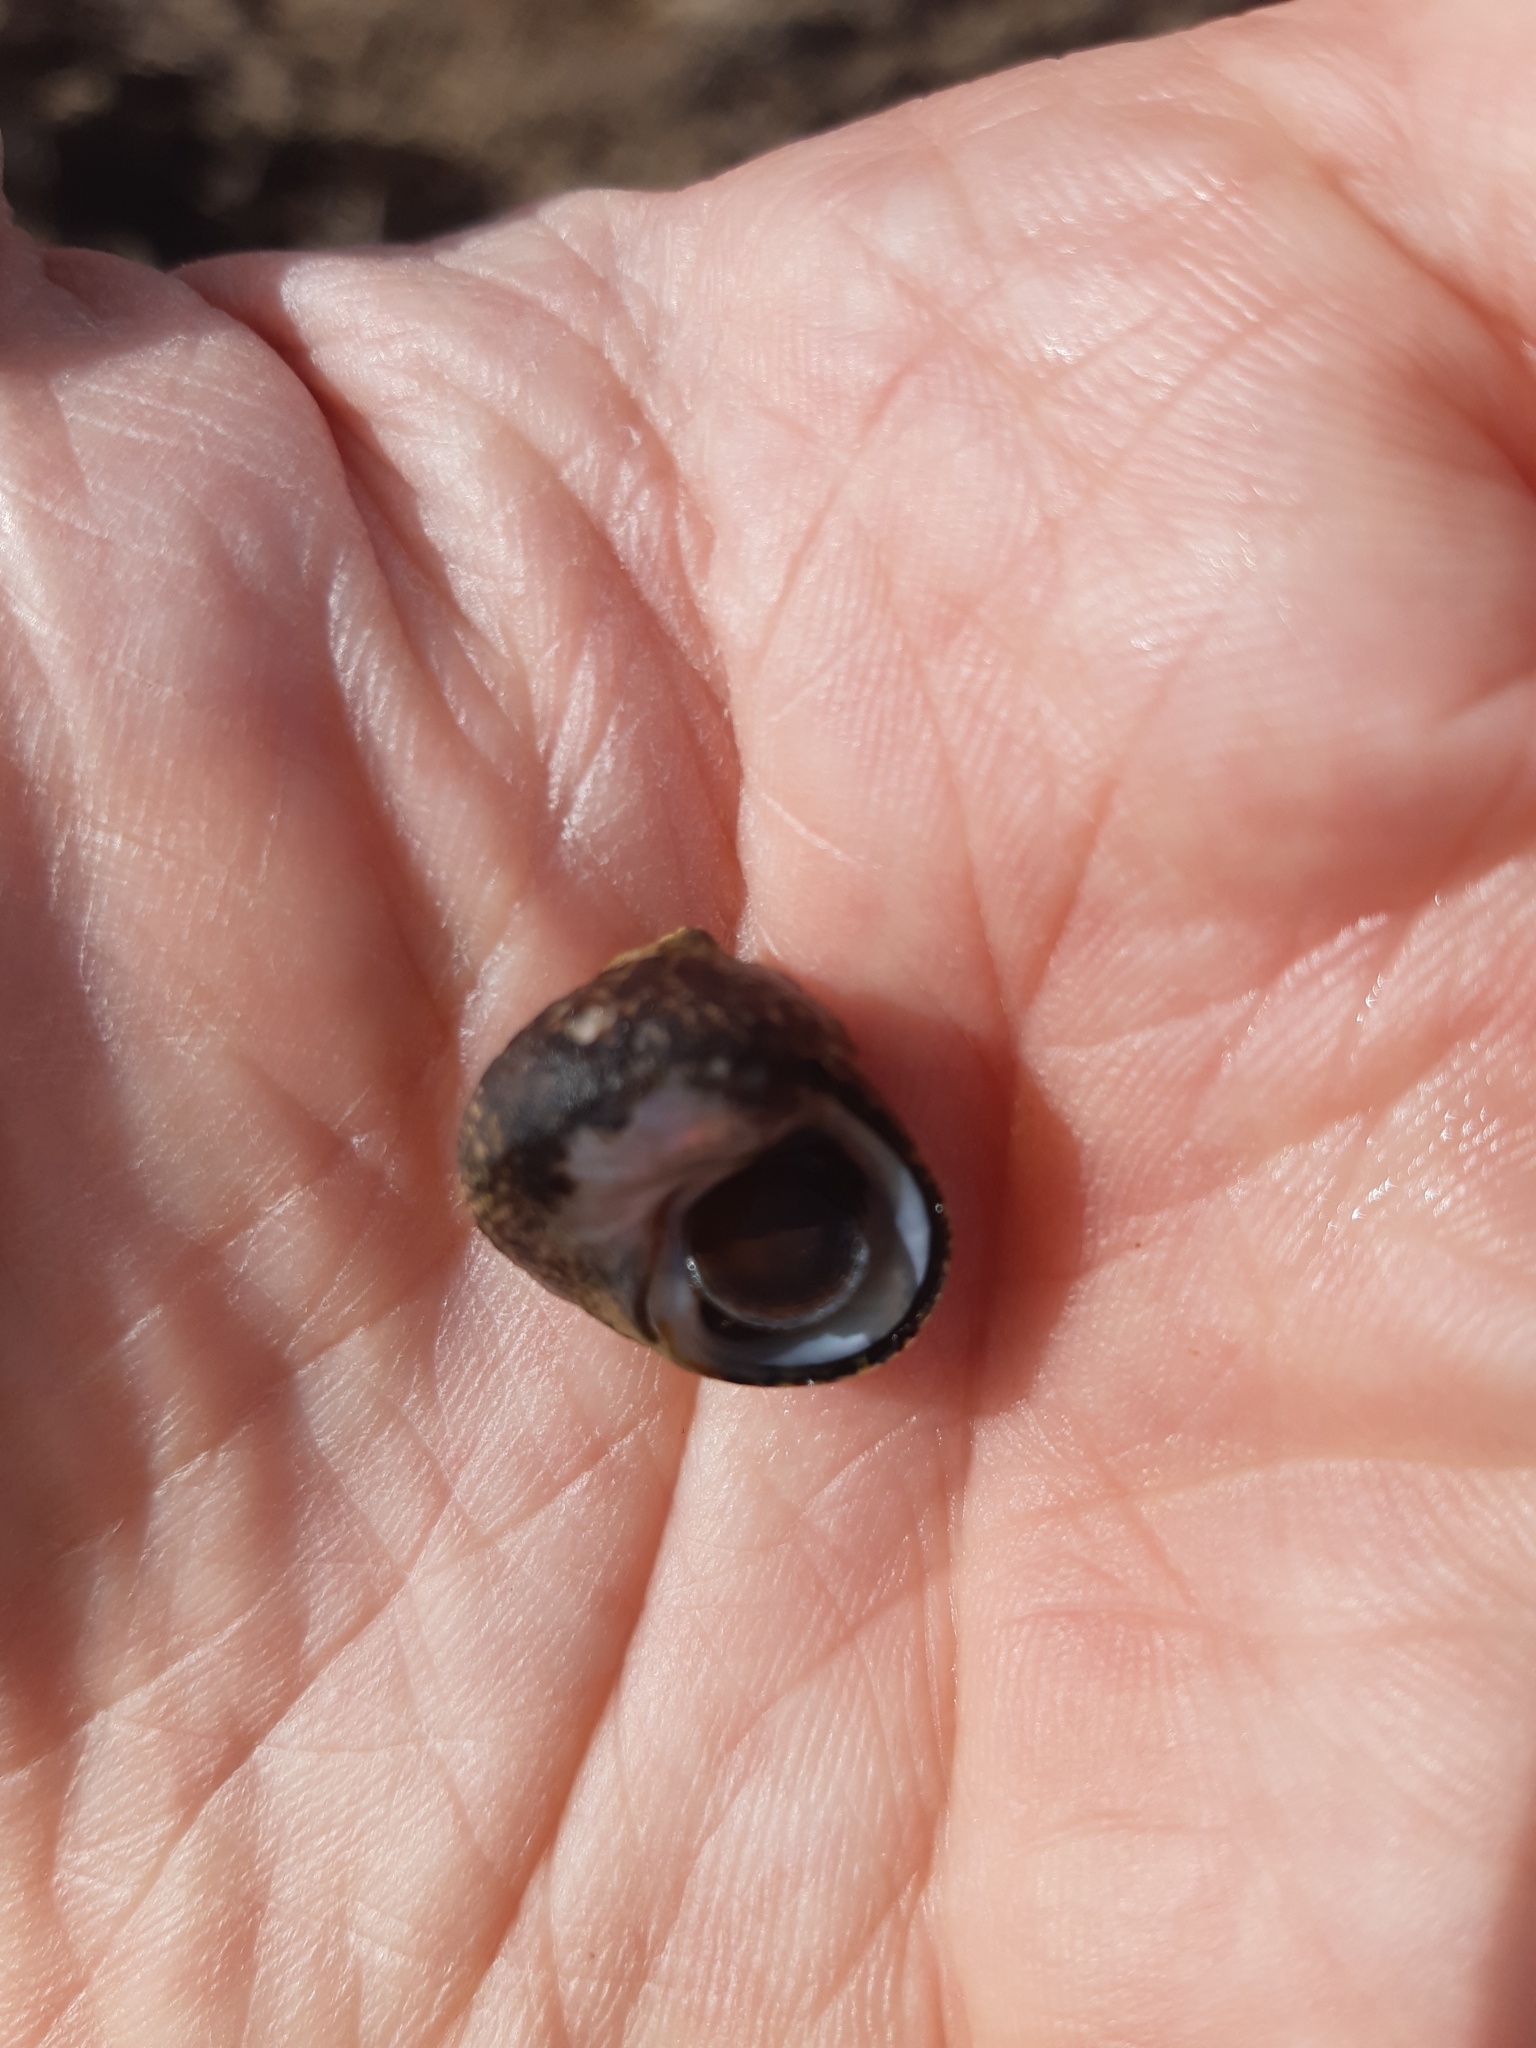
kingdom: Animalia
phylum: Mollusca
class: Gastropoda
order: Trochida
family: Trochidae
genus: Phorcus
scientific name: Phorcus lineatus
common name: Toothed top shell
